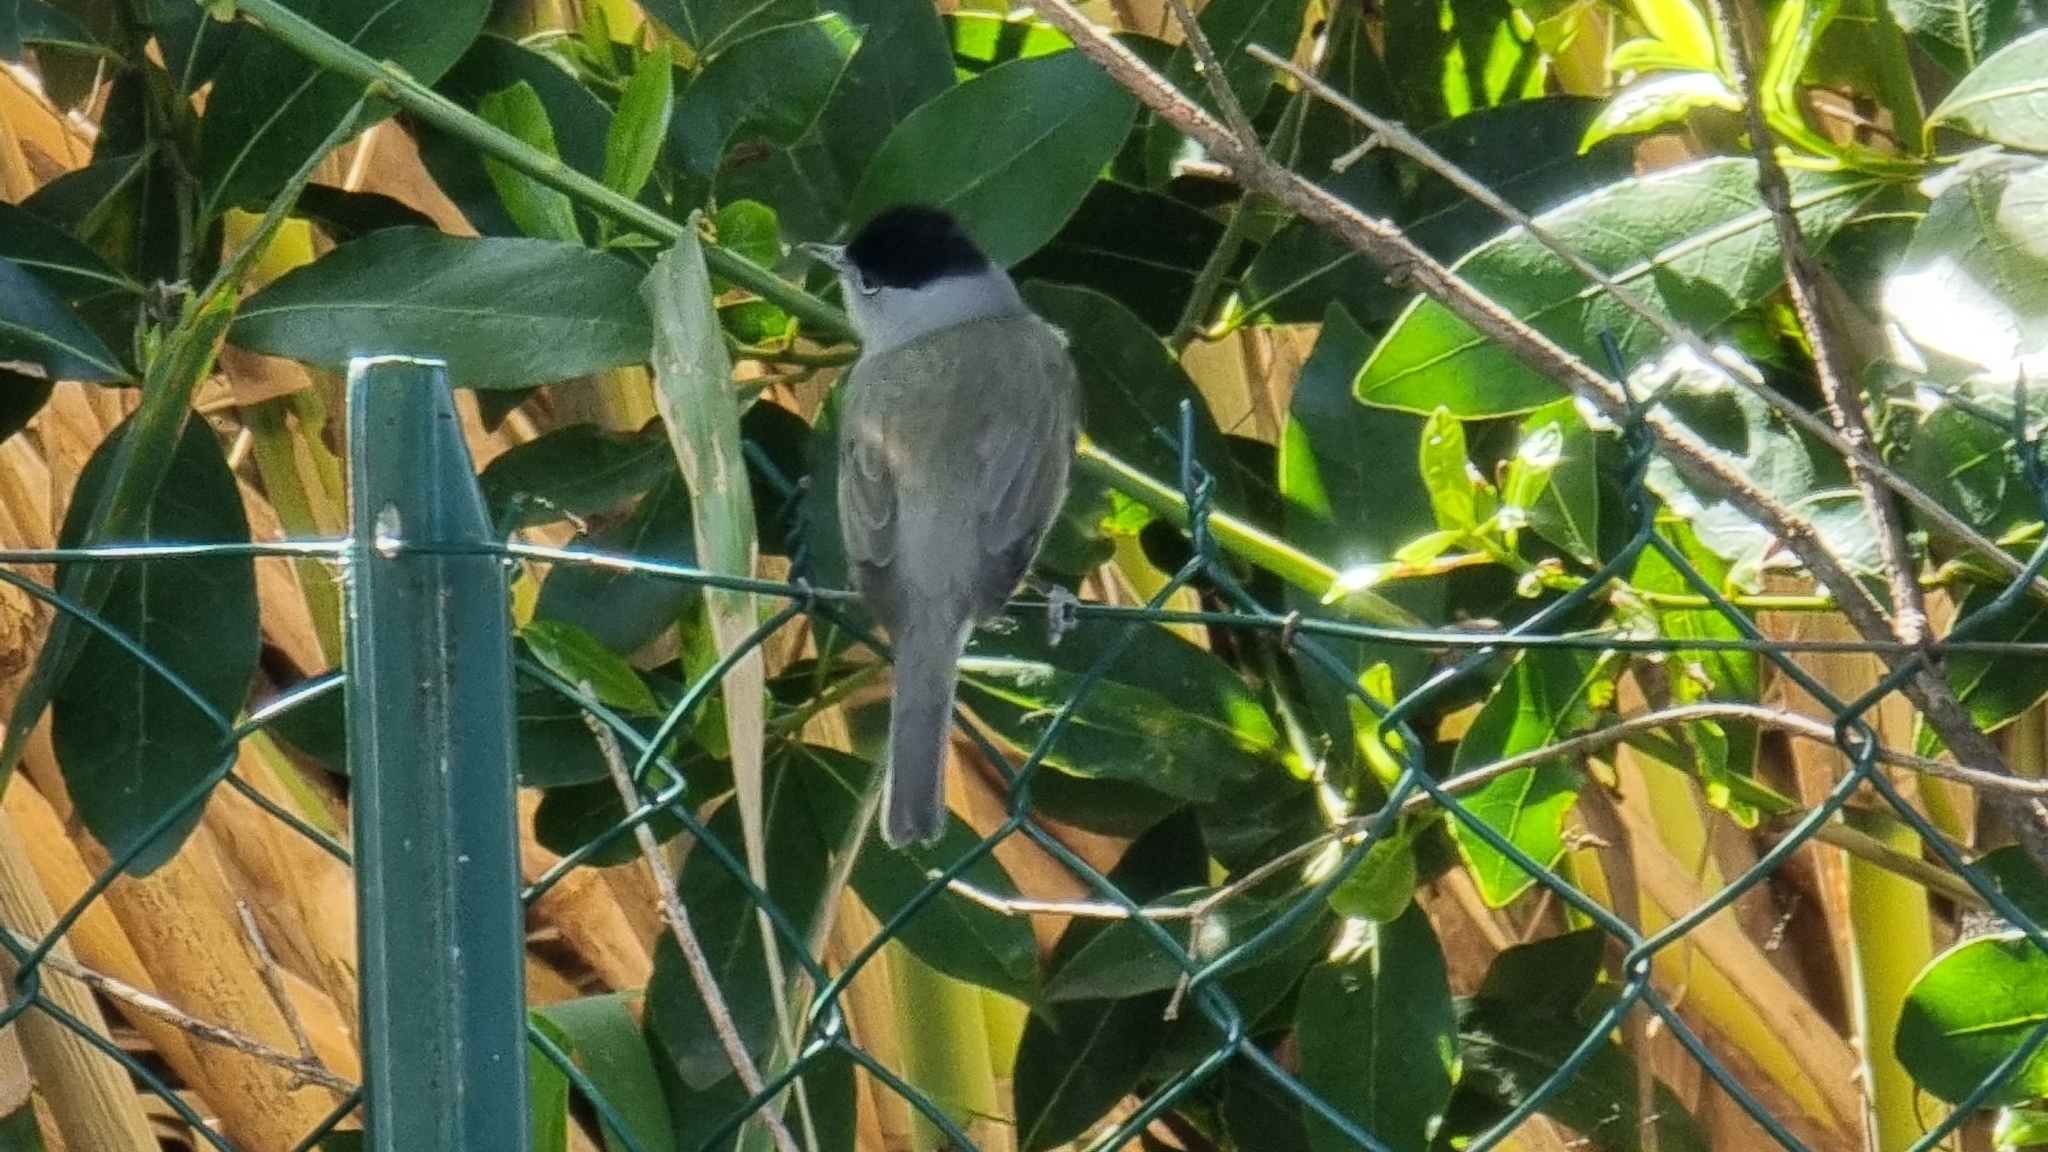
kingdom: Animalia
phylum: Chordata
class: Aves
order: Passeriformes
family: Sylviidae
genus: Sylvia
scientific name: Sylvia atricapilla
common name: Eurasian blackcap
